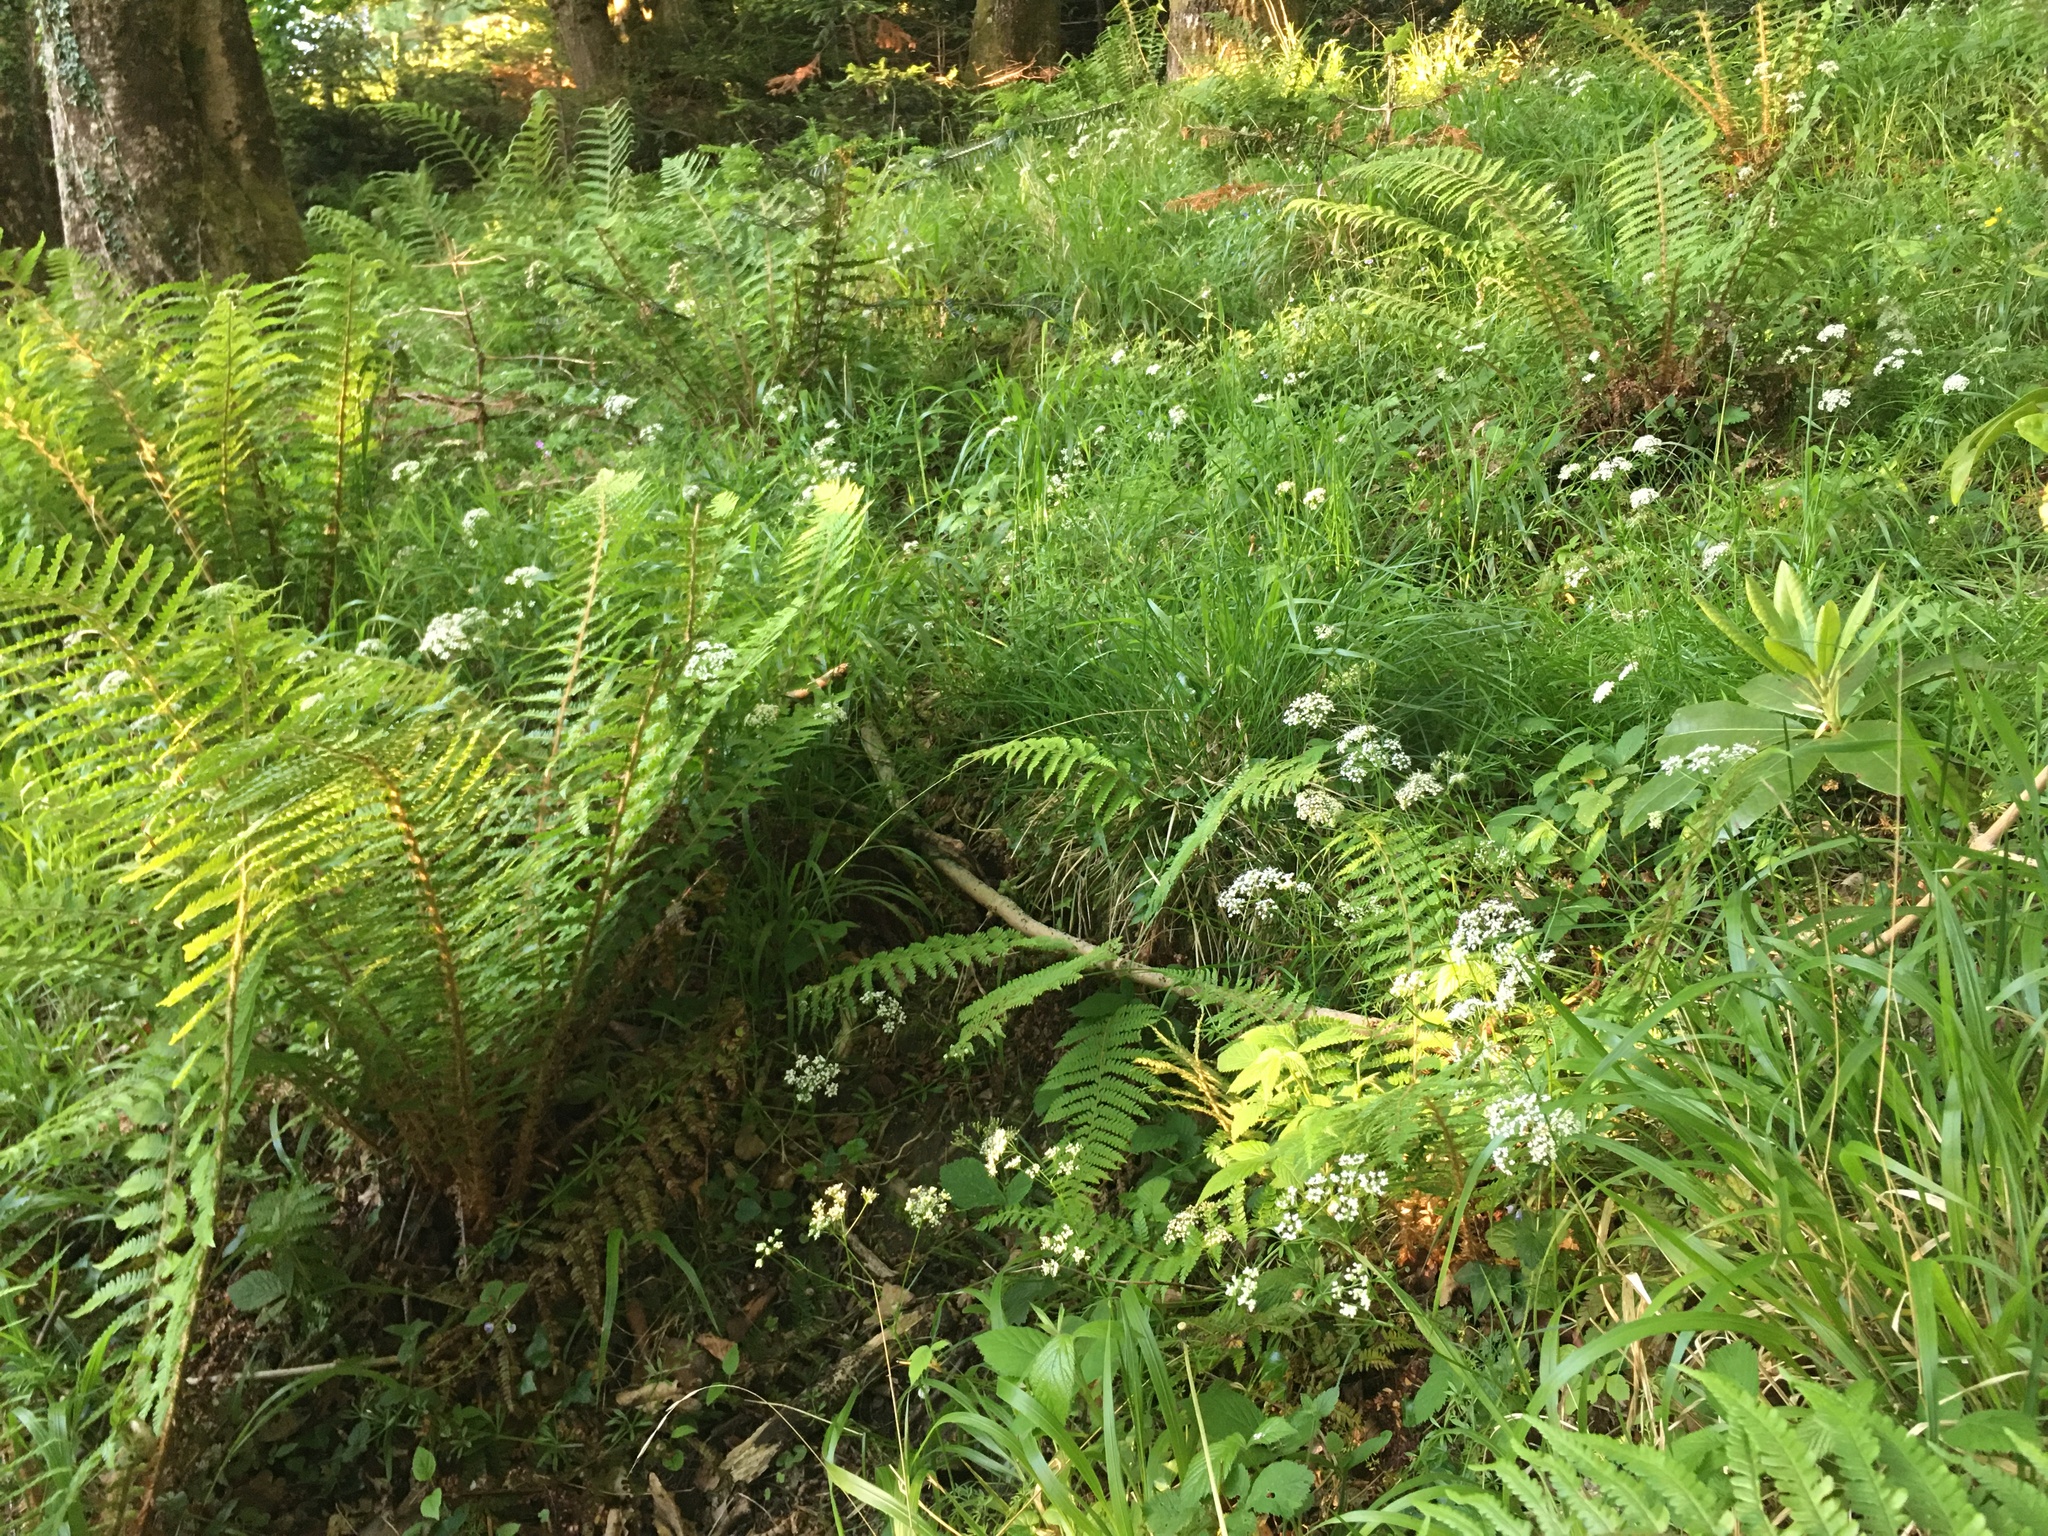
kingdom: Plantae
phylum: Tracheophyta
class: Magnoliopsida
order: Apiales
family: Apiaceae
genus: Conopodium
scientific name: Conopodium majus
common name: Pignut
